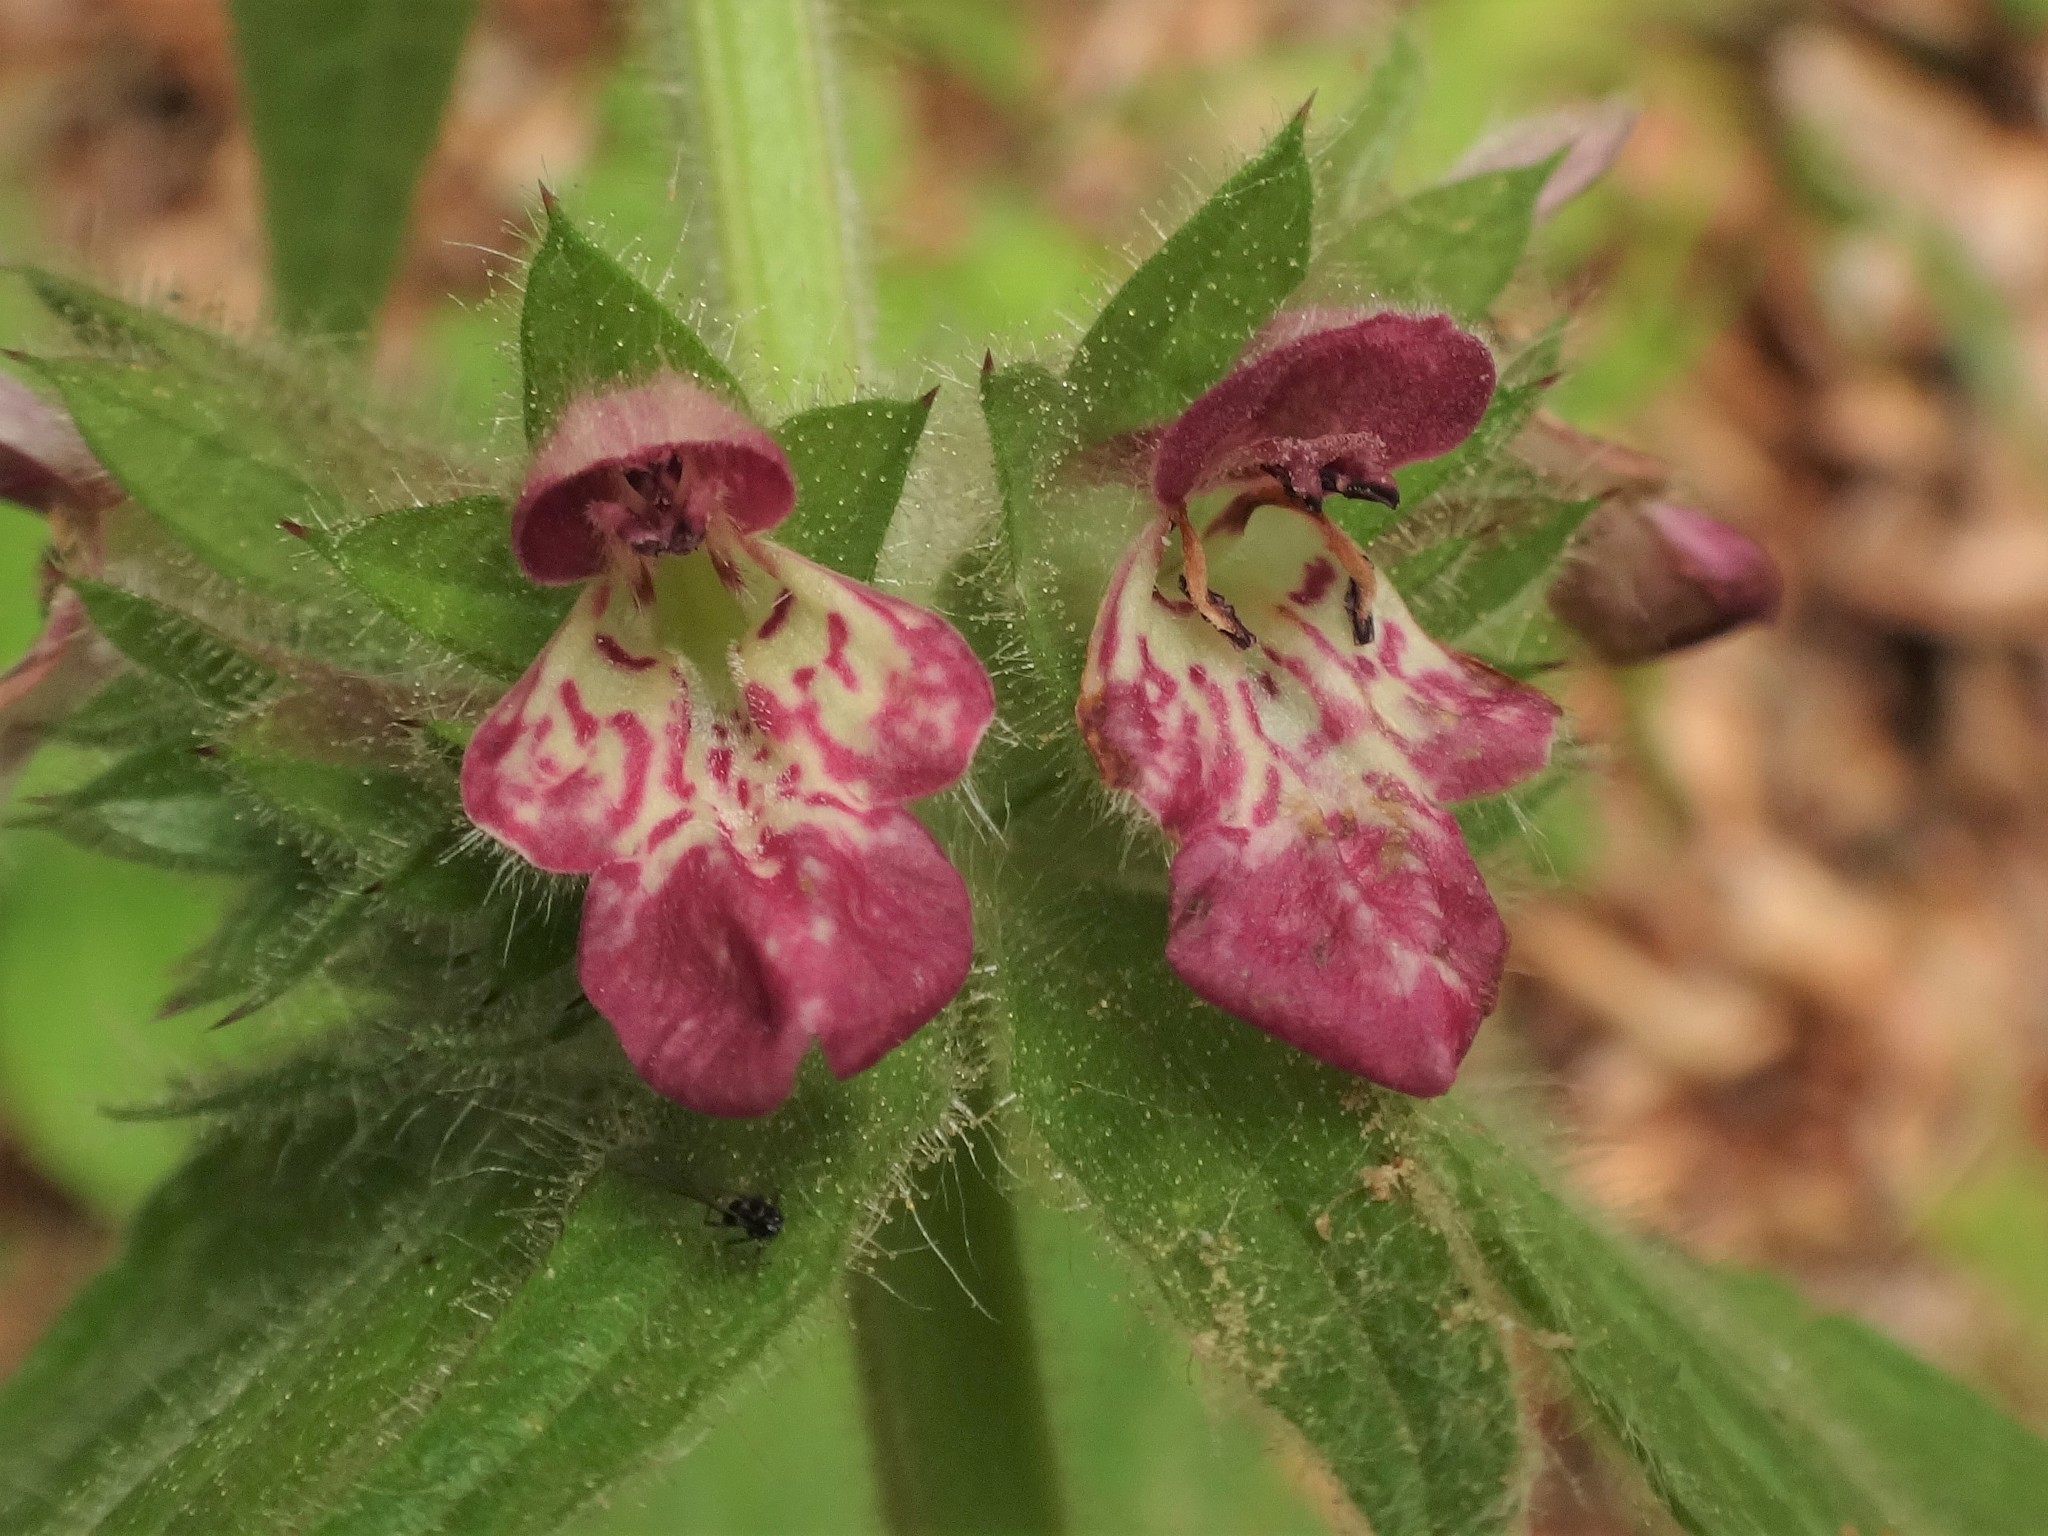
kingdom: Plantae
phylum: Tracheophyta
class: Magnoliopsida
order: Lamiales
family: Lamiaceae
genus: Stachys
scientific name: Stachys alpina
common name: Limestone woundwort
